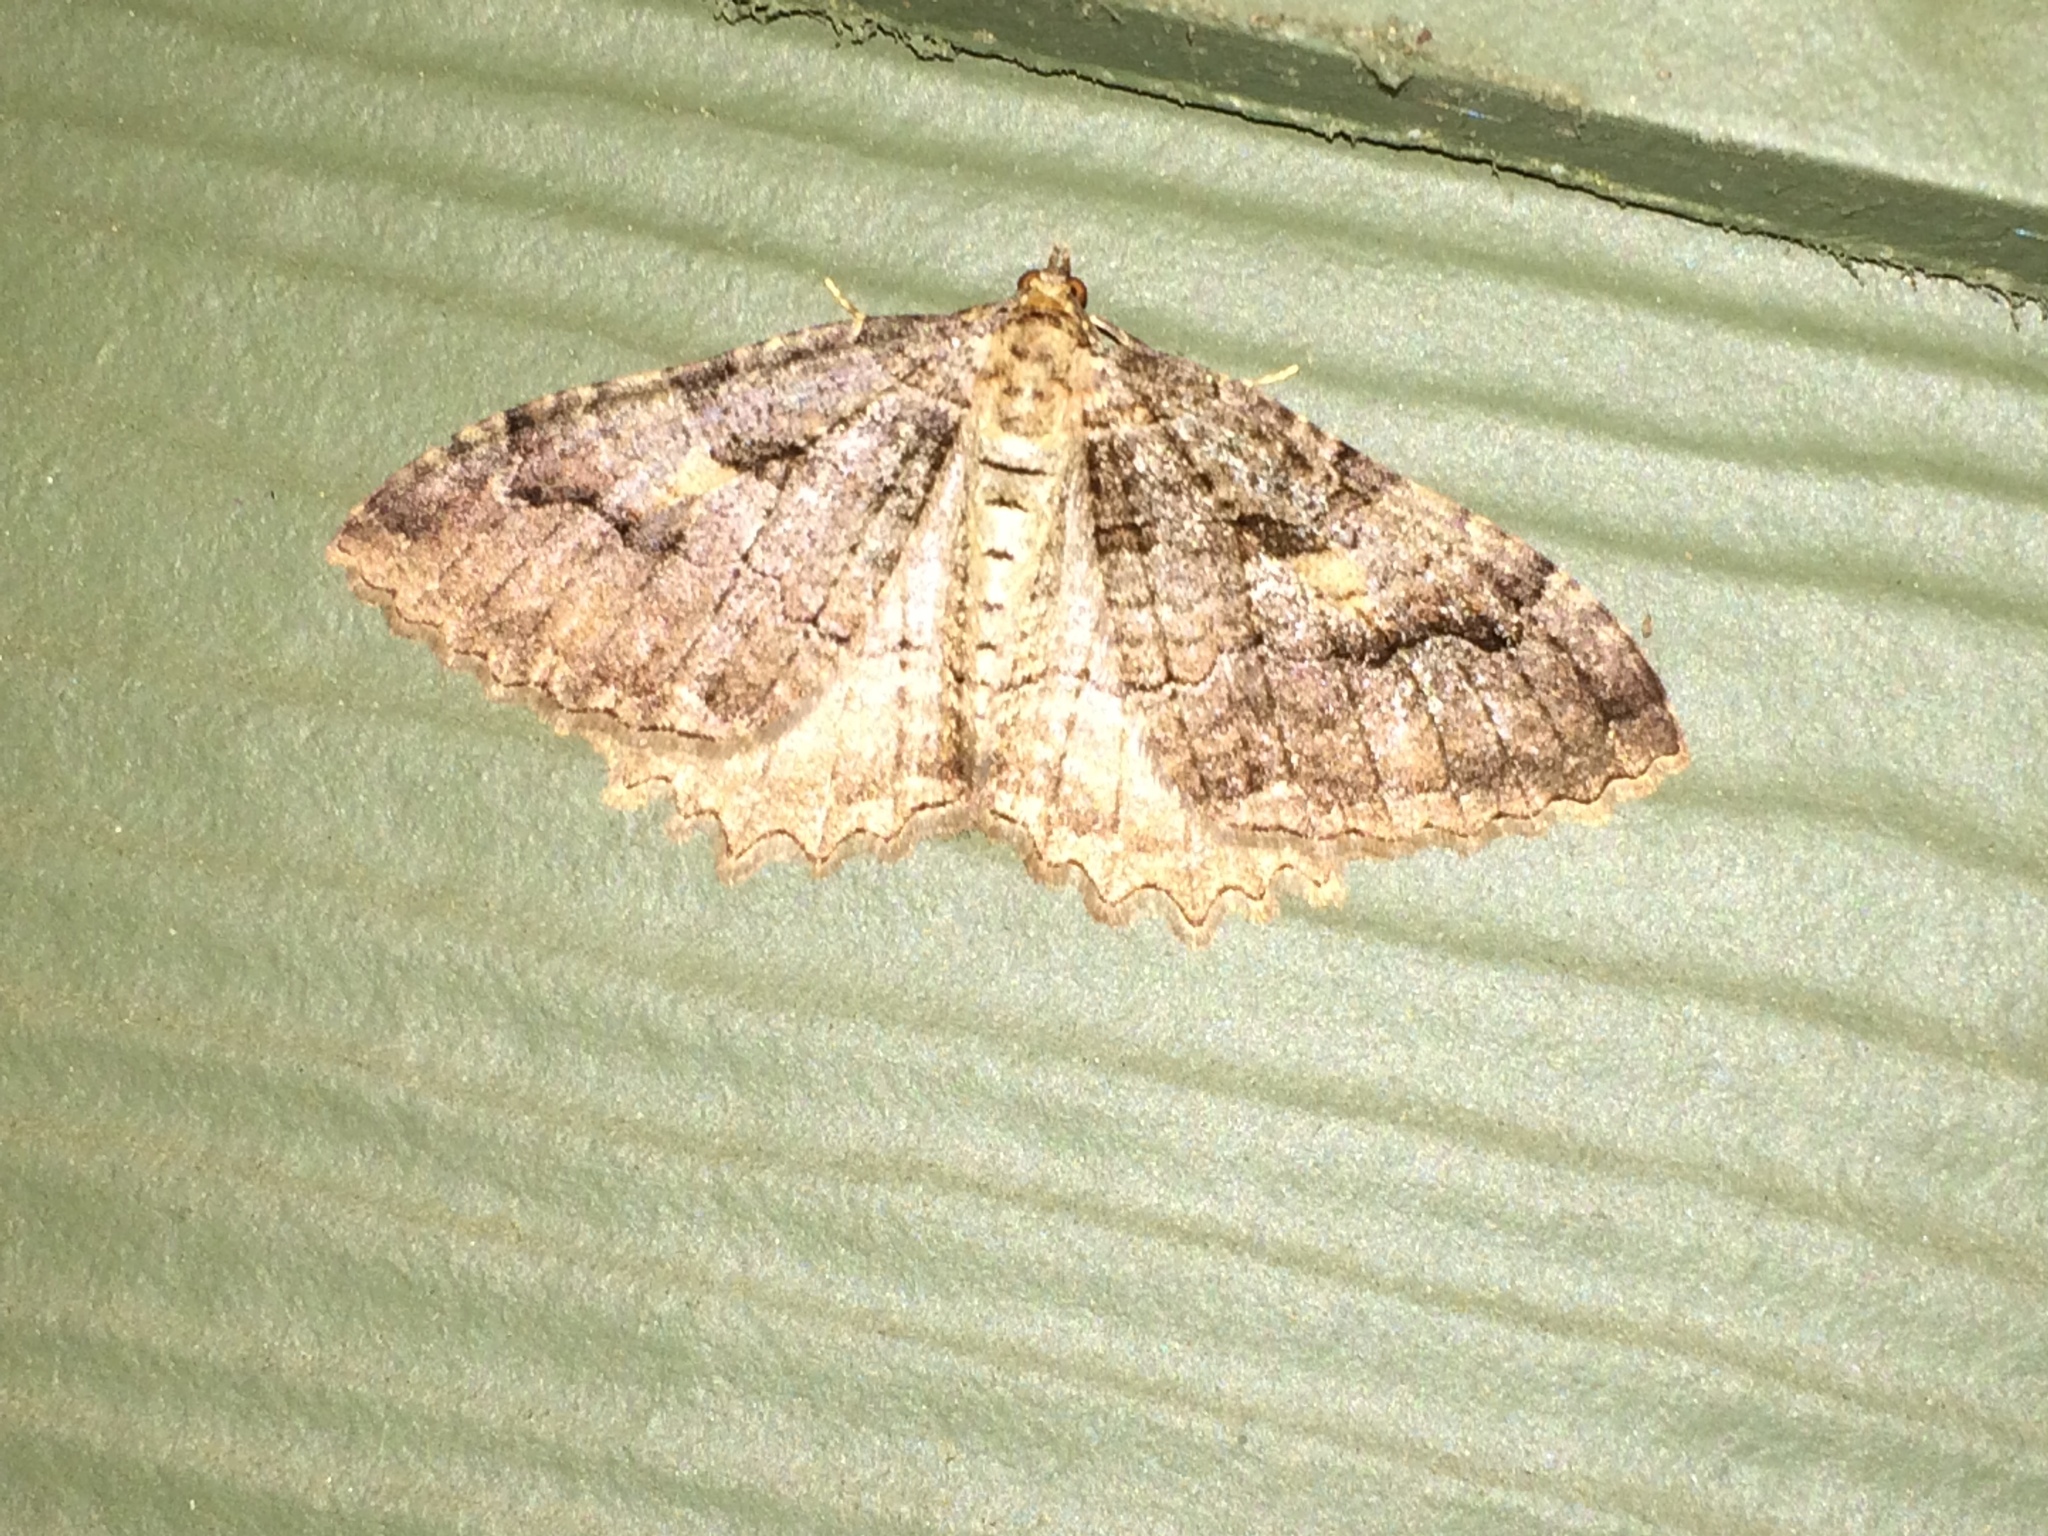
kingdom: Animalia
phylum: Arthropoda
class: Insecta
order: Lepidoptera
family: Geometridae
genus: Triphosa
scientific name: Triphosa haesitata
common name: Tissue moth
